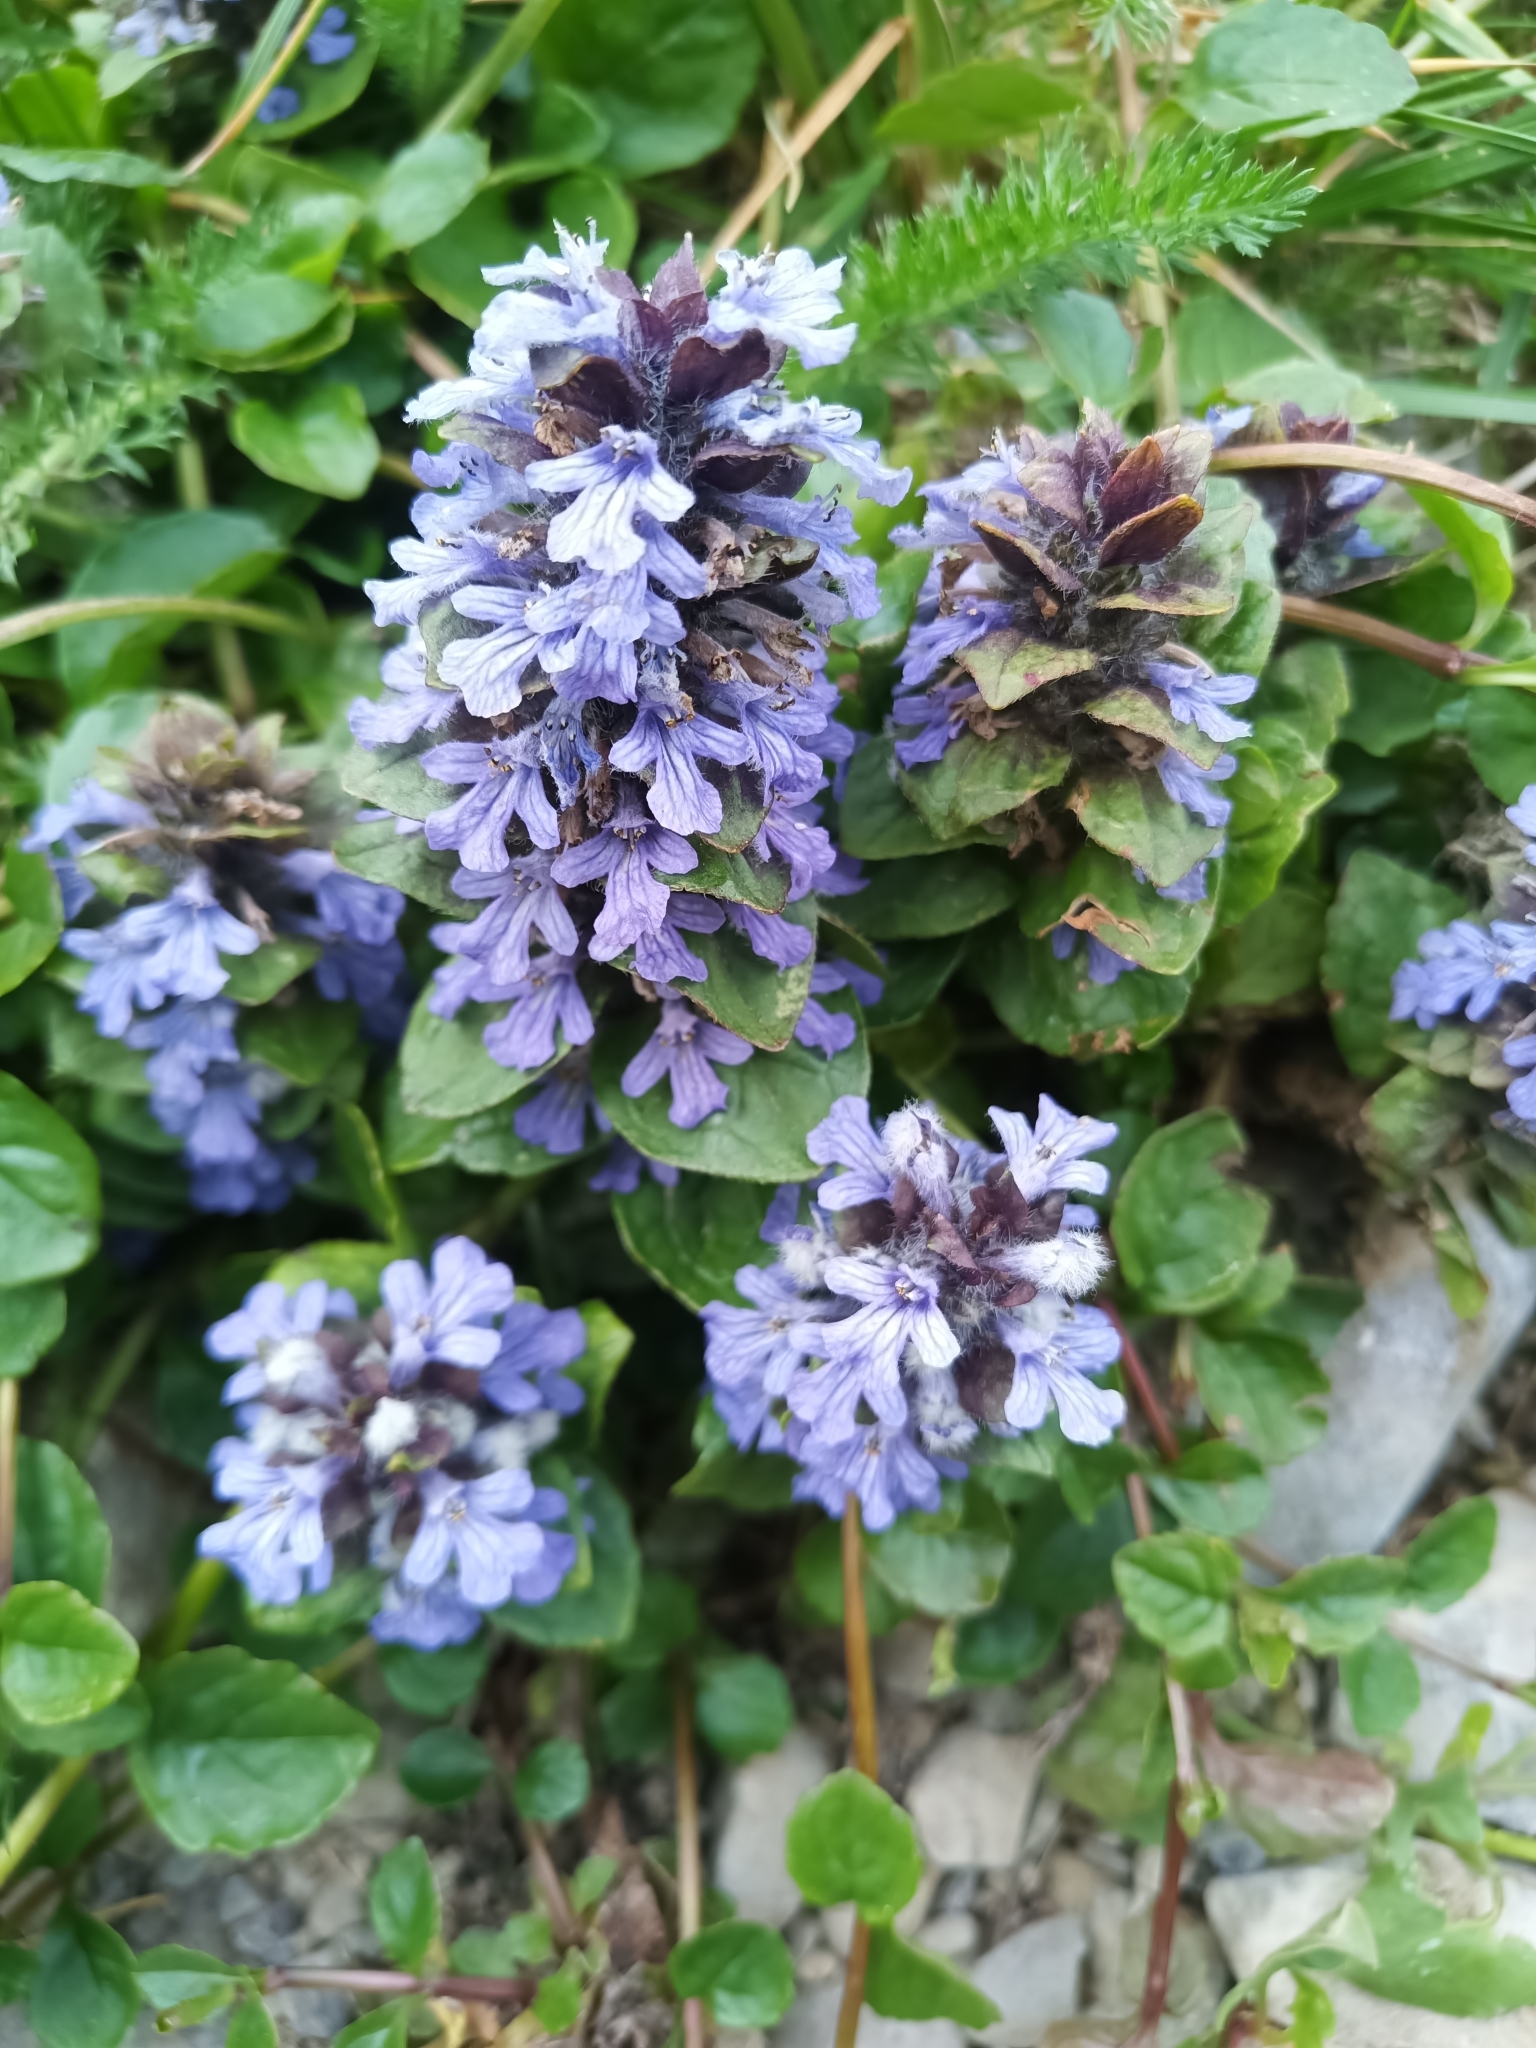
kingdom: Plantae
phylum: Tracheophyta
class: Magnoliopsida
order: Lamiales
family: Lamiaceae
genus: Ajuga
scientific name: Ajuga reptans
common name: Bugle
